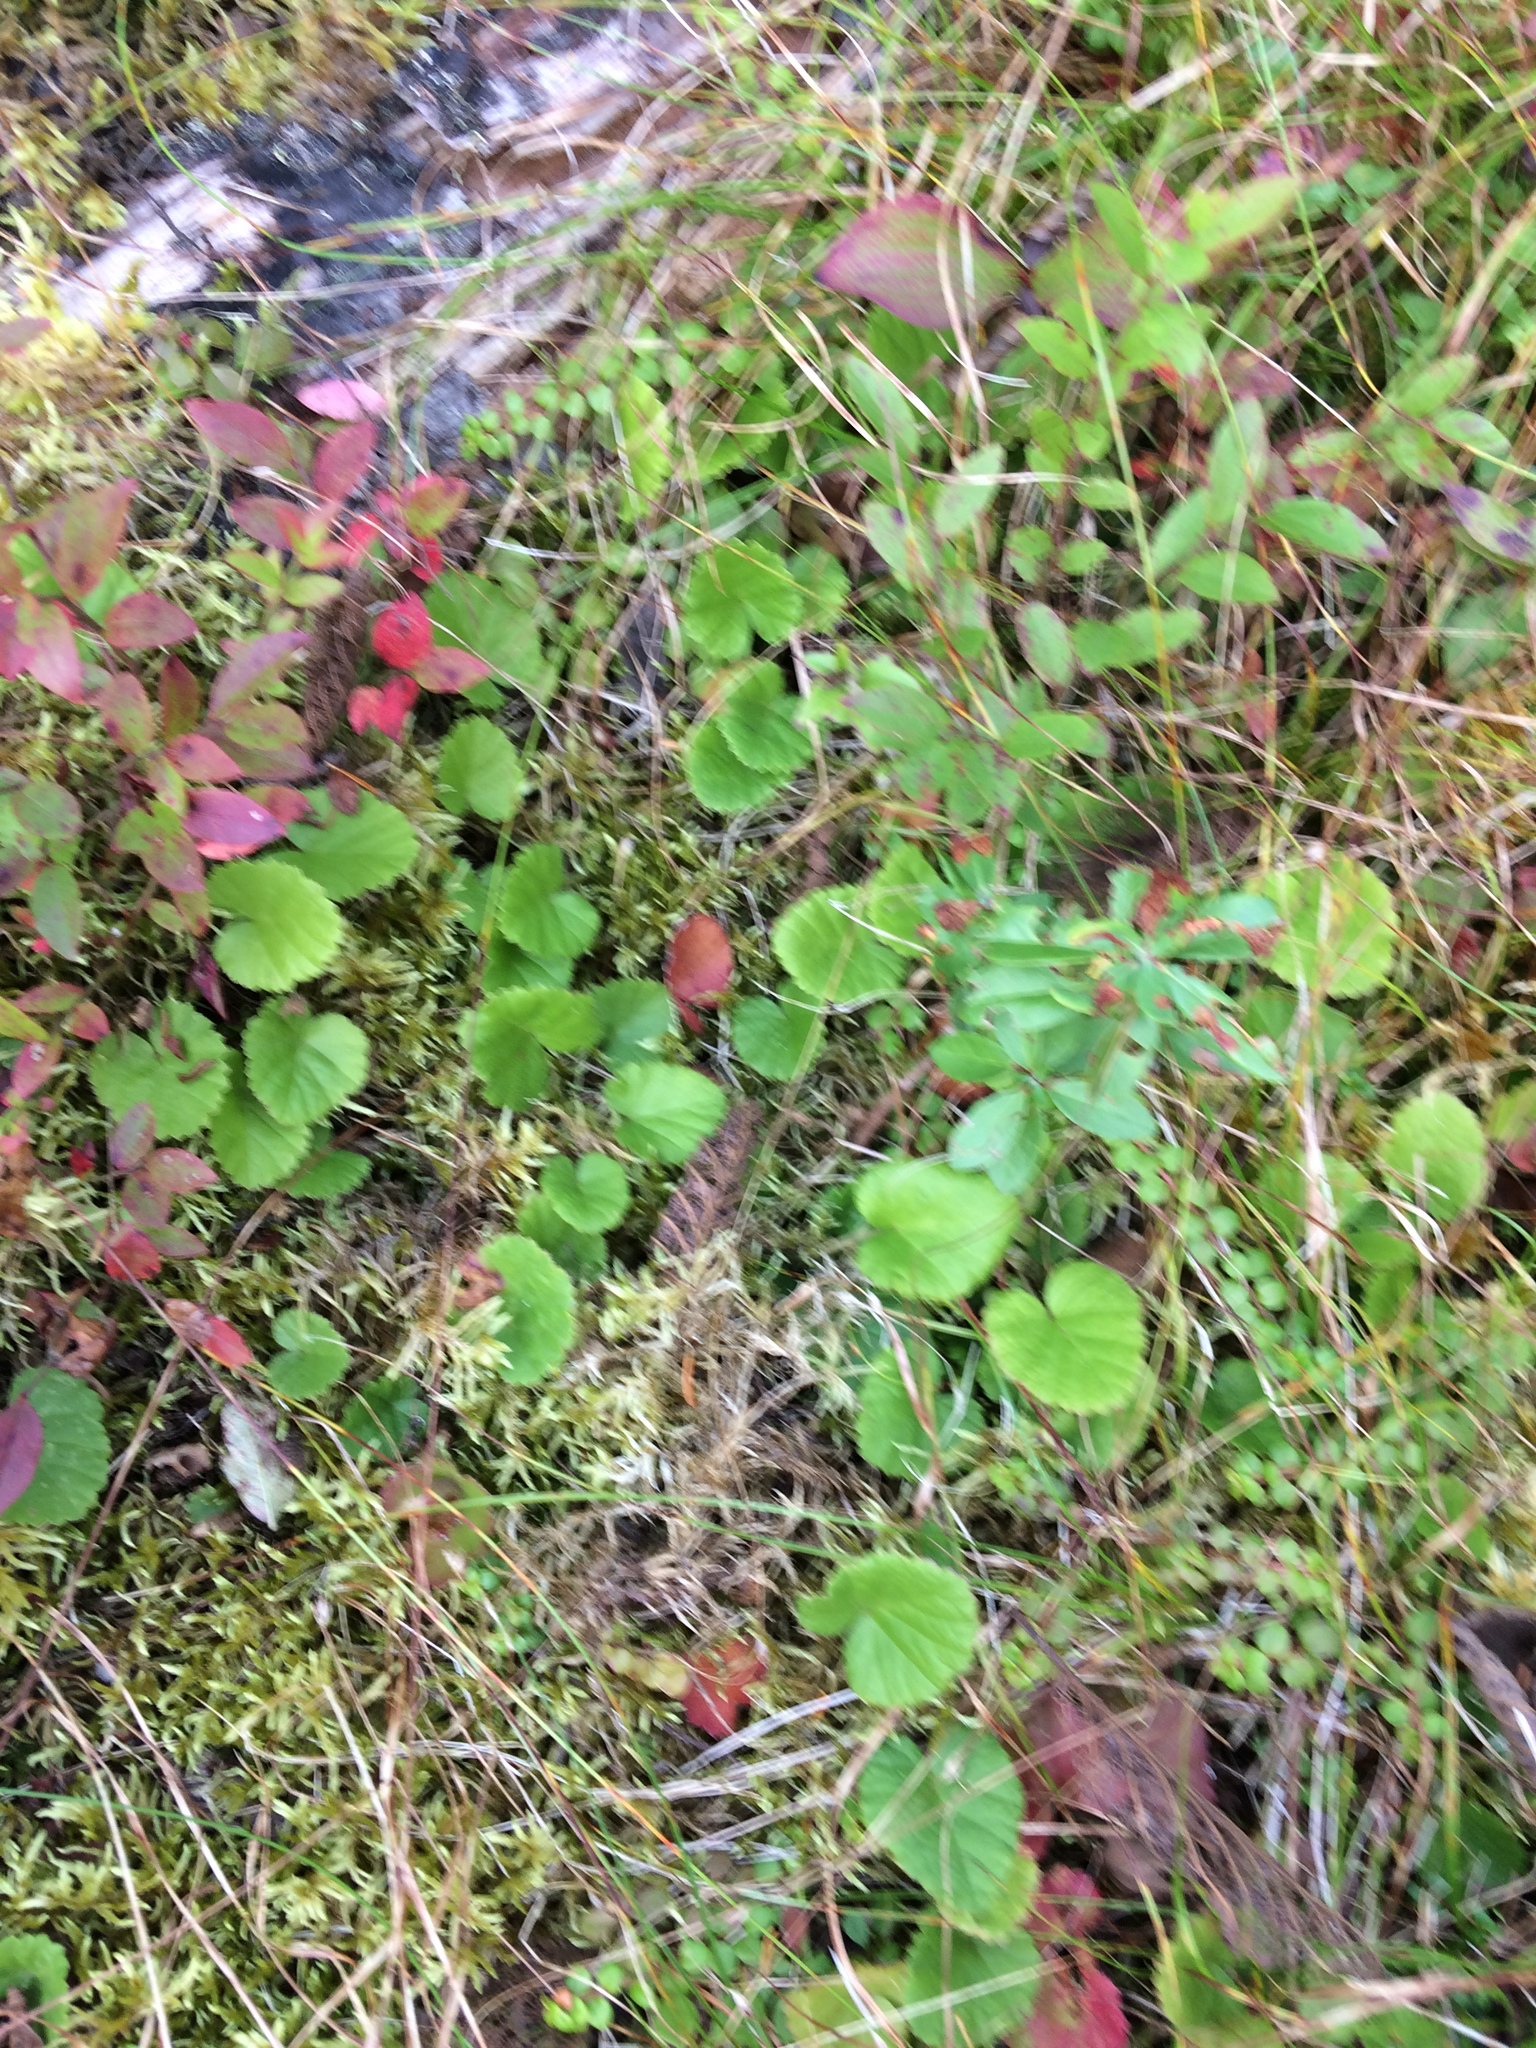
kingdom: Plantae
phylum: Tracheophyta
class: Magnoliopsida
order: Rosales
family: Rosaceae
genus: Dalibarda
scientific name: Dalibarda repens
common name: Dewdrop
